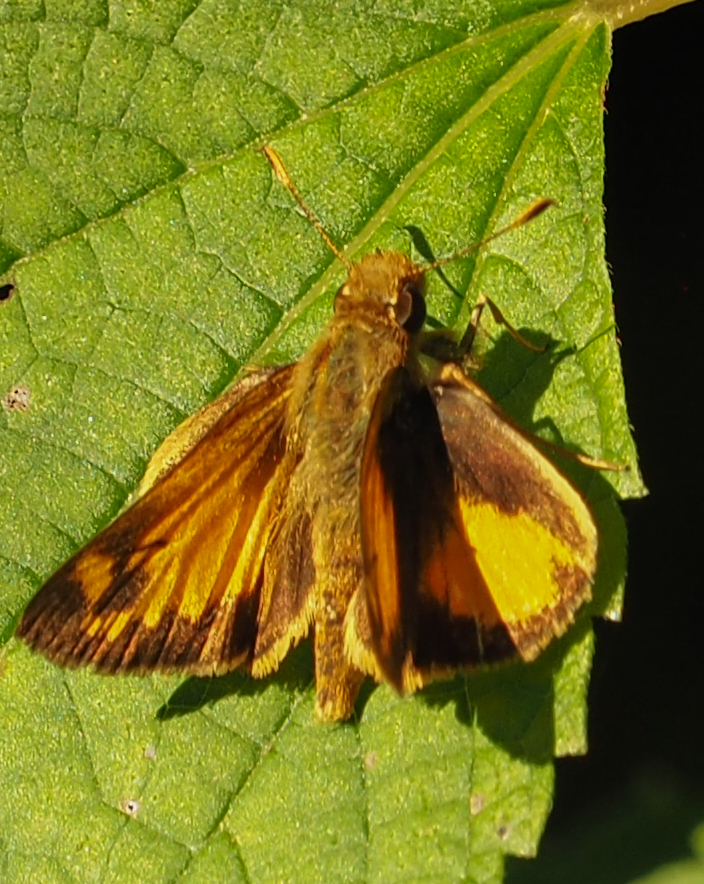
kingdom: Animalia
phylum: Arthropoda
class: Insecta
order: Lepidoptera
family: Hesperiidae
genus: Lon
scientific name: Lon zabulon
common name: Zabulon skipper
